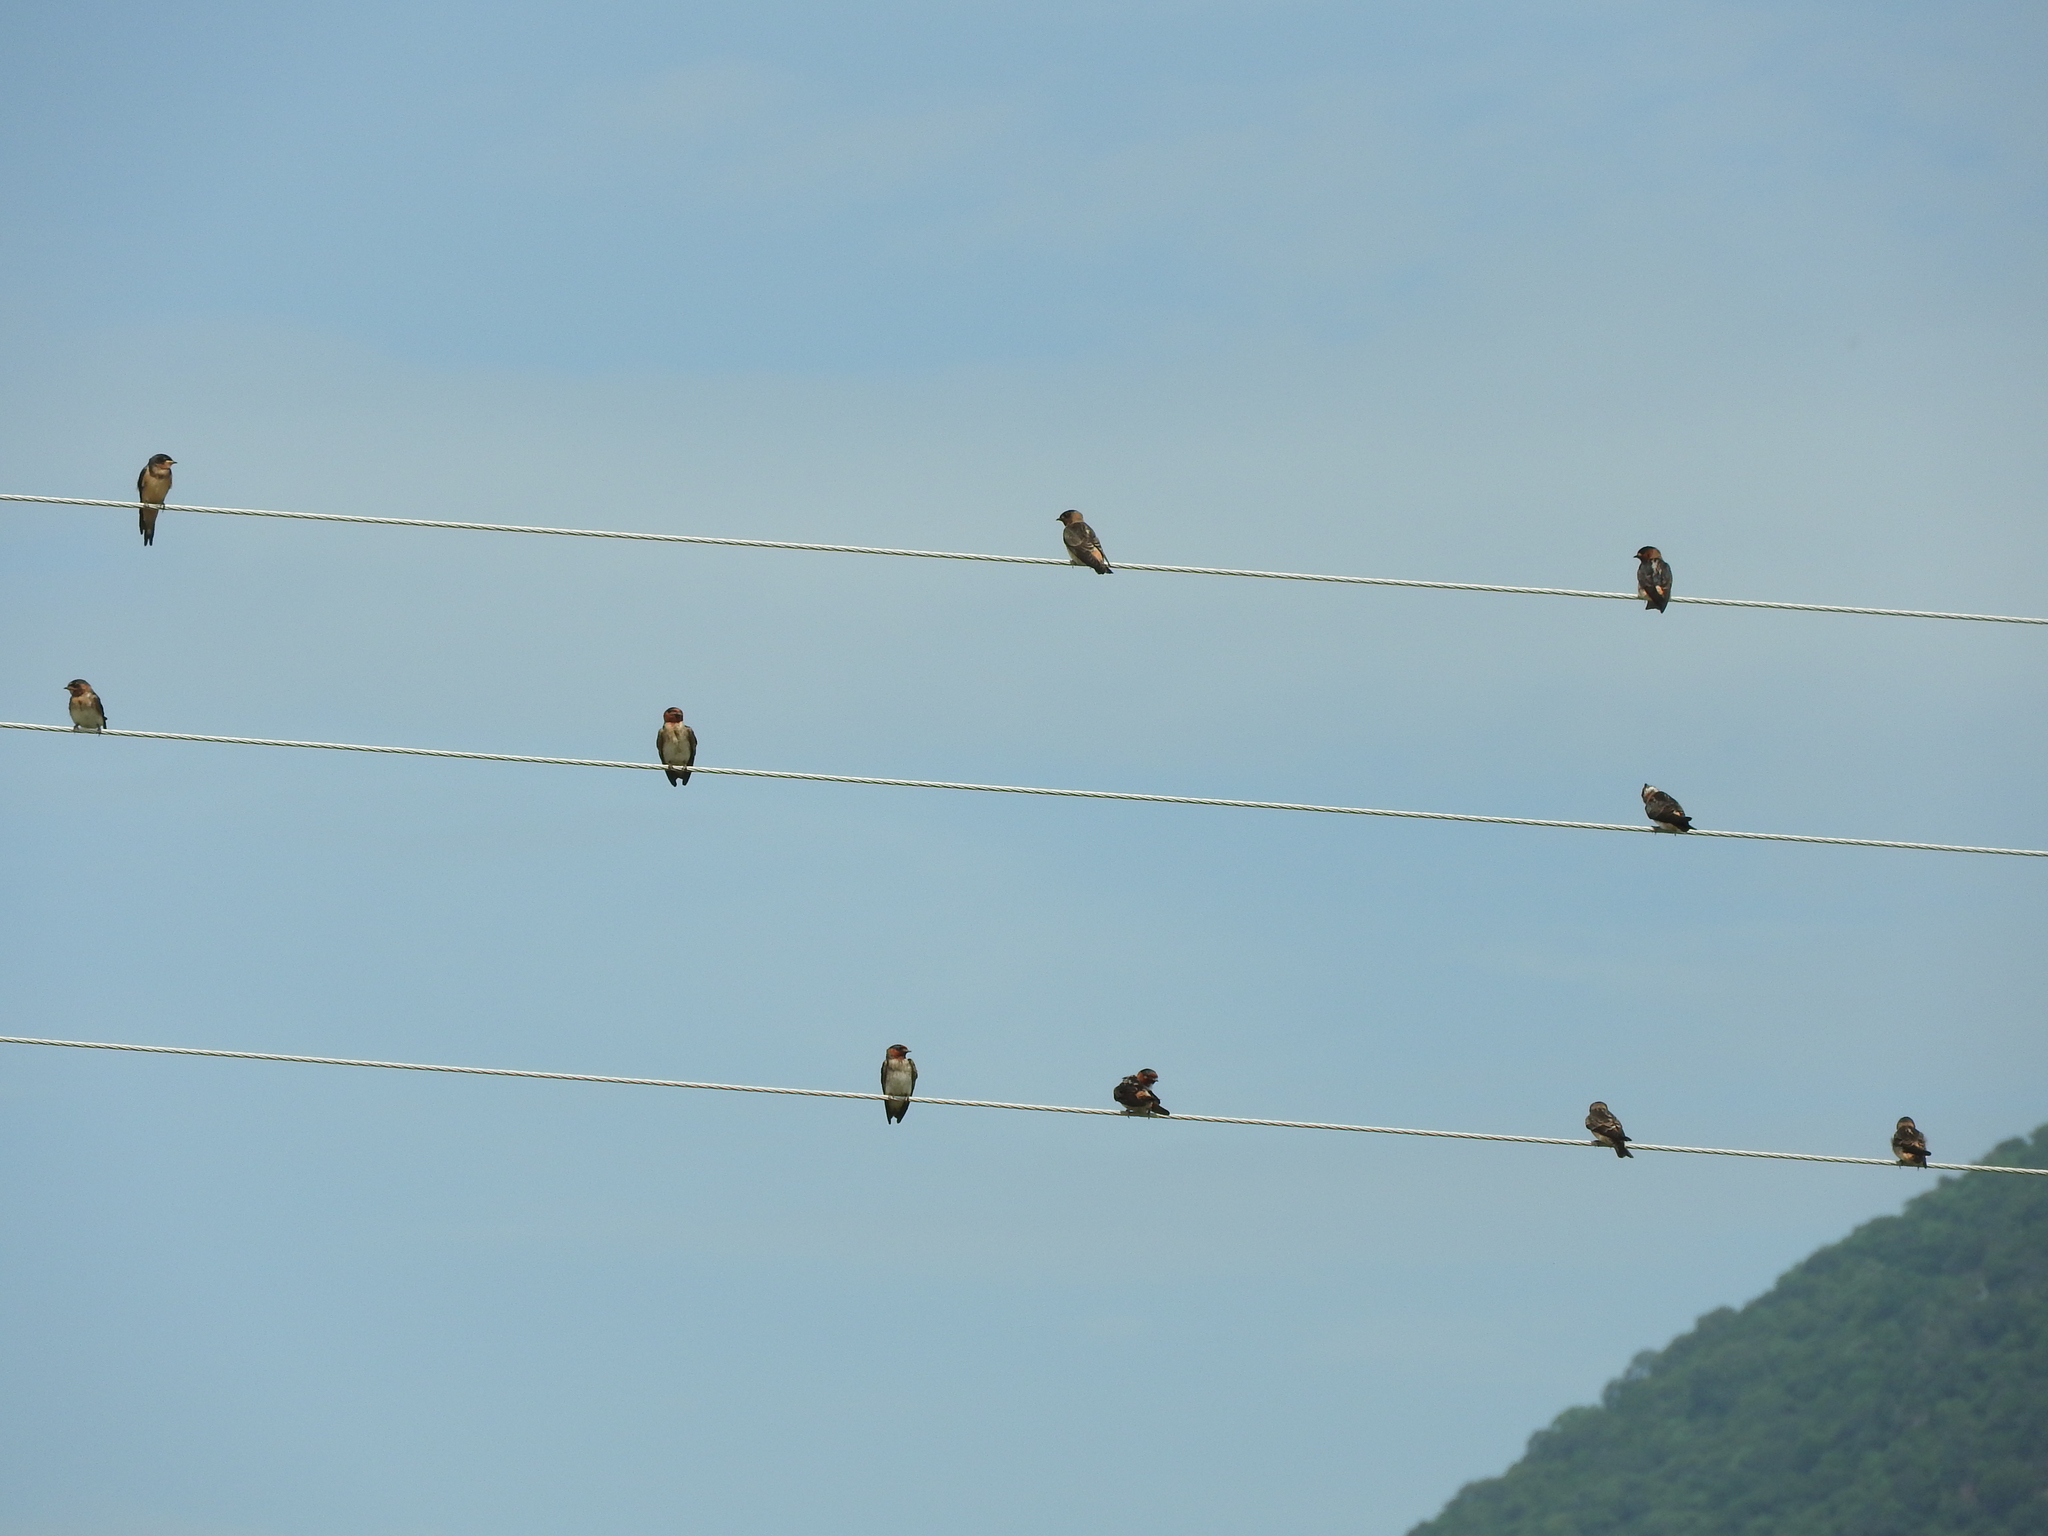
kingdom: Animalia
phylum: Chordata
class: Aves
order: Passeriformes
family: Hirundinidae
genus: Petrochelidon
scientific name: Petrochelidon pyrrhonota
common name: American cliff swallow
